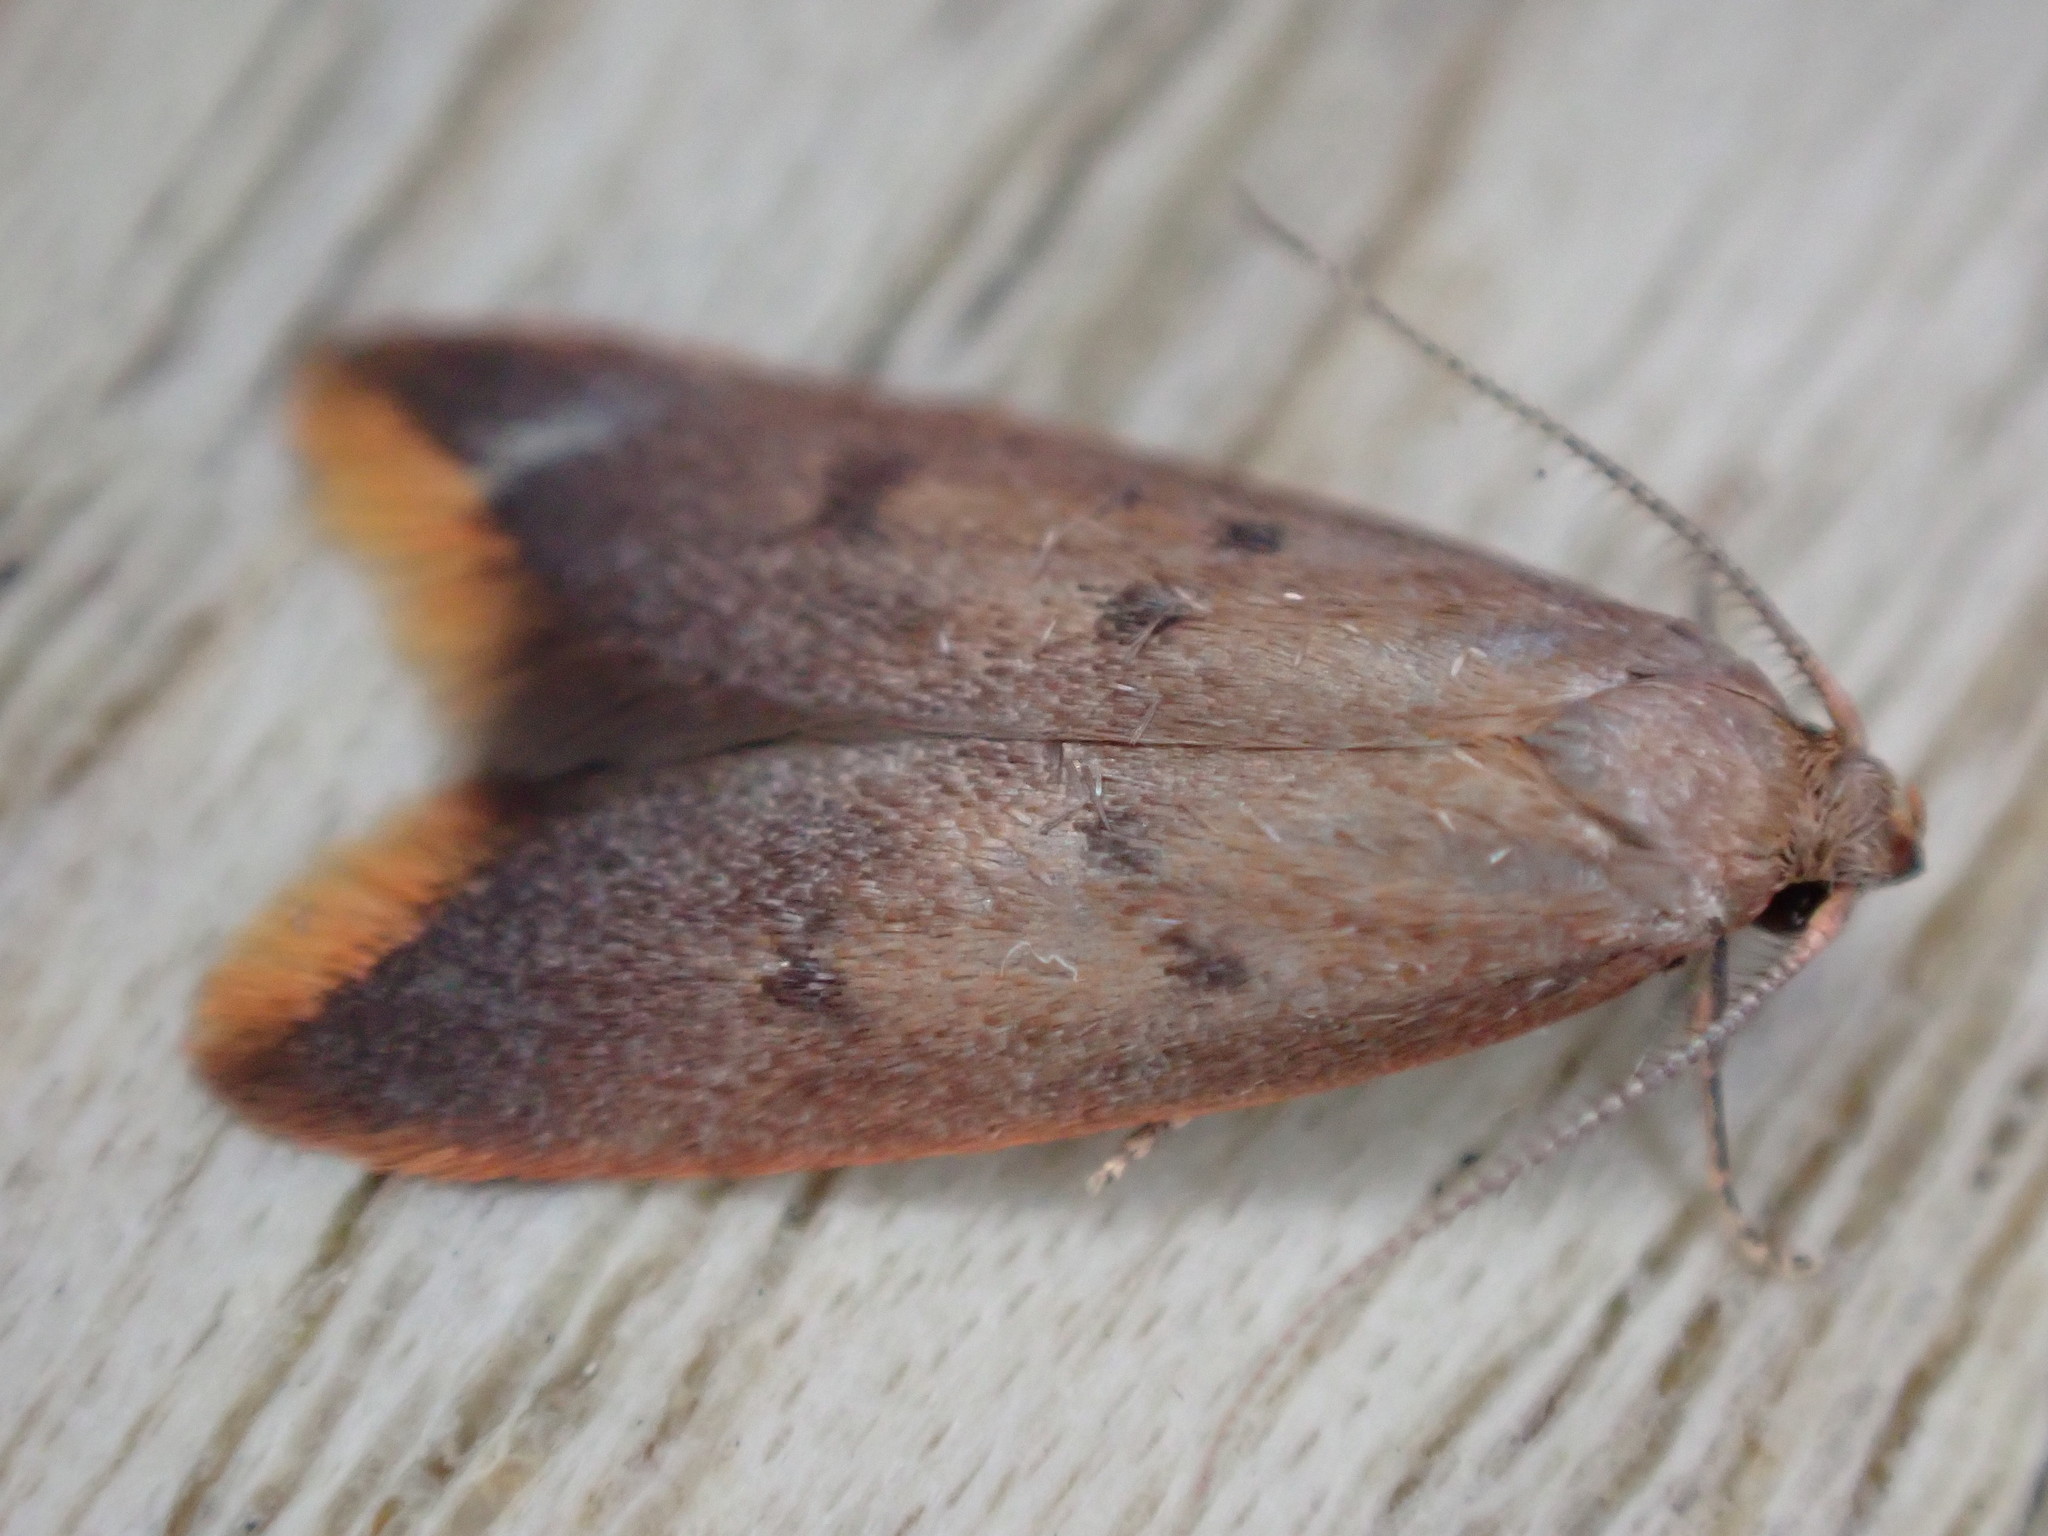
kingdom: Animalia
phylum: Arthropoda
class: Insecta
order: Lepidoptera
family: Oecophoridae
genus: Tachystola
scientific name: Tachystola acroxantha
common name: Ruddy streak
